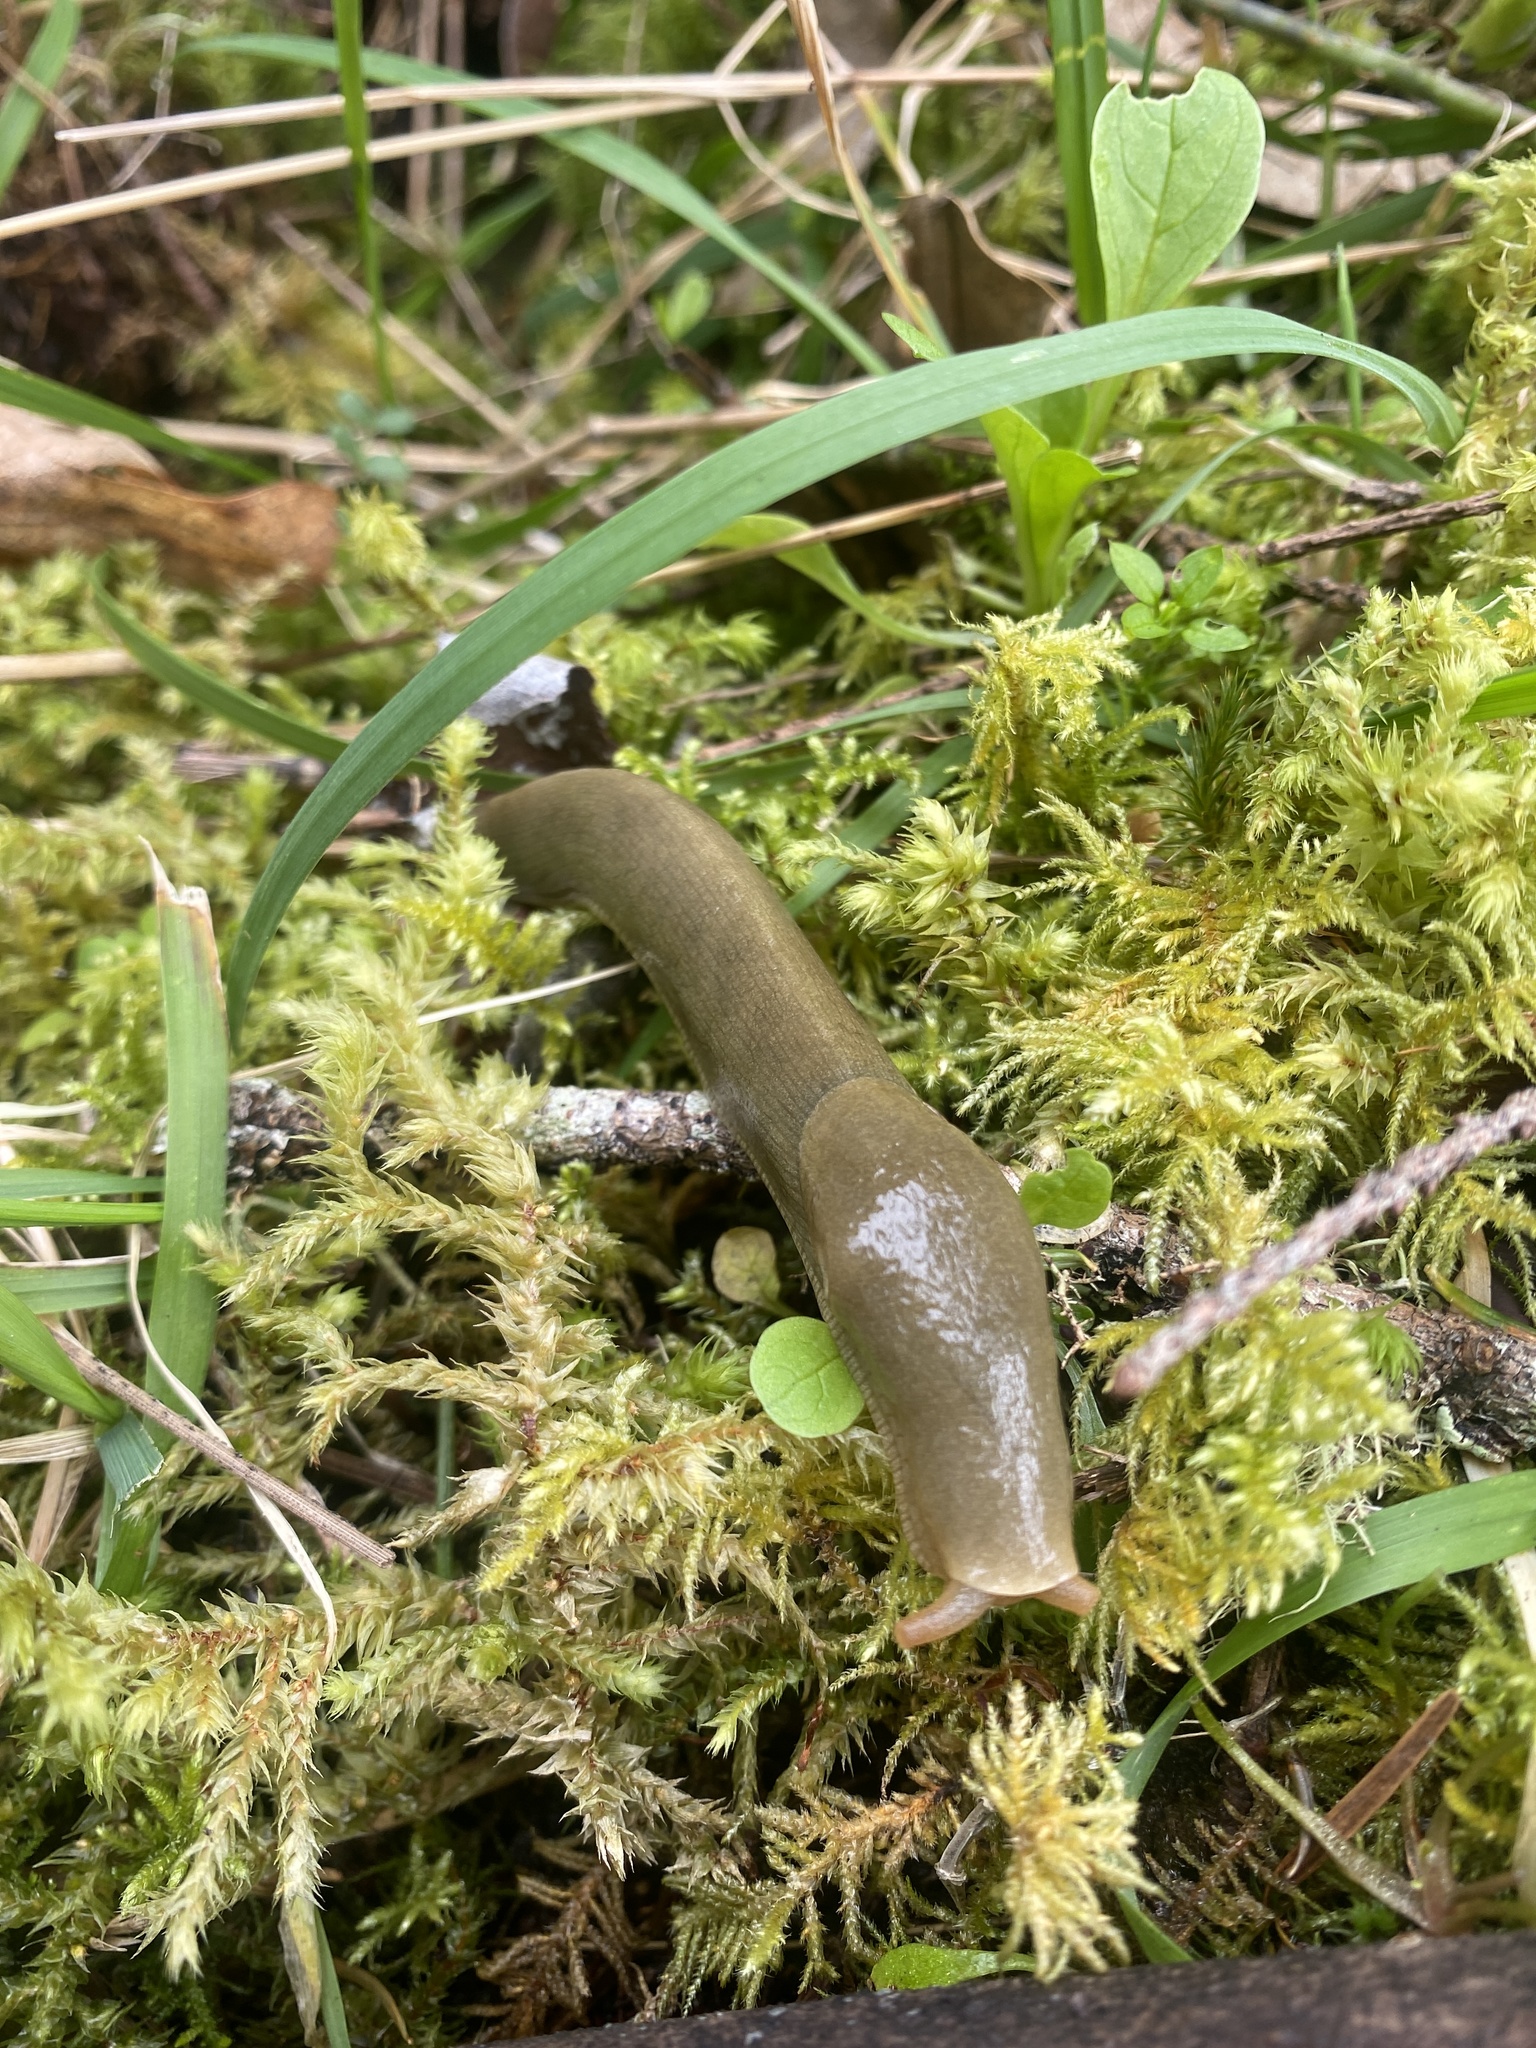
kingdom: Animalia
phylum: Mollusca
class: Gastropoda
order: Stylommatophora
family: Ariolimacidae
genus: Ariolimax
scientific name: Ariolimax columbianus
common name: Pacific banana slug
